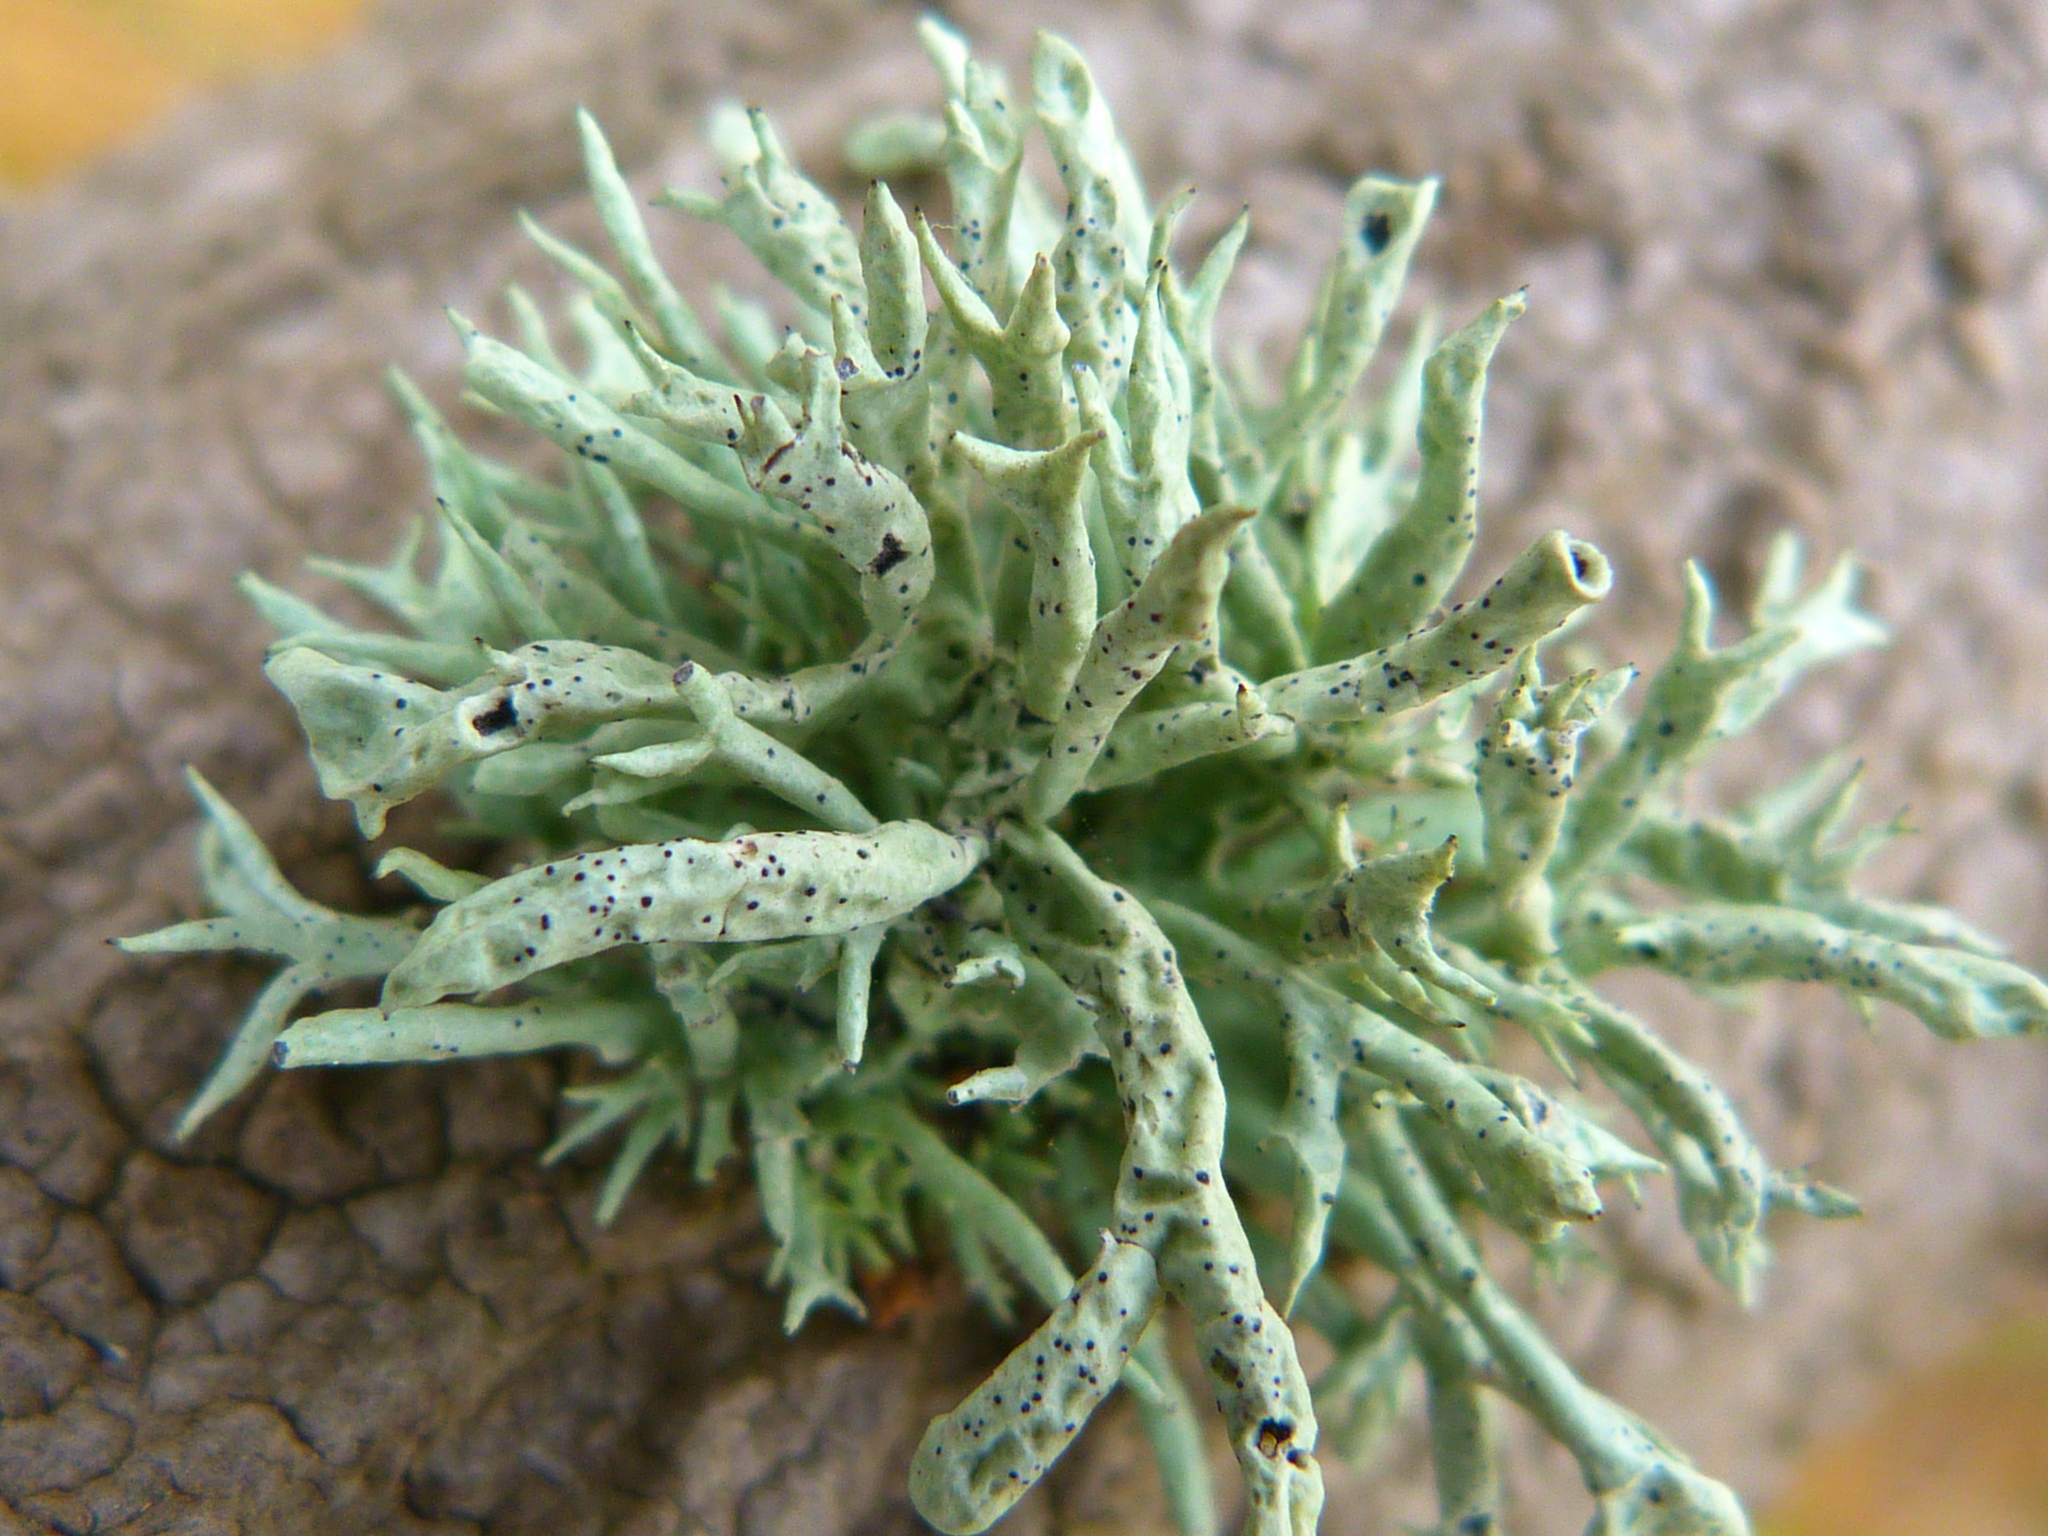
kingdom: Fungi
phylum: Ascomycota
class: Lecanoromycetes
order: Lecanorales
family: Ramalinaceae
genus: Niebla
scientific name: Niebla ceruchis
